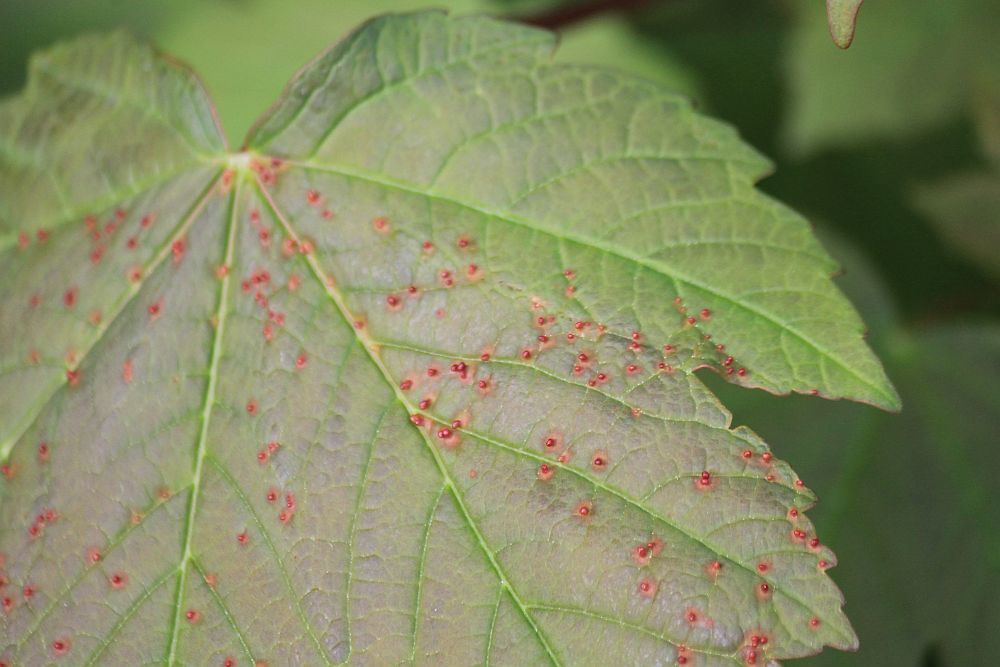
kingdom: Animalia
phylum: Arthropoda
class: Arachnida
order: Trombidiformes
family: Eriophyidae
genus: Aceria
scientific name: Aceria cephaloneus
